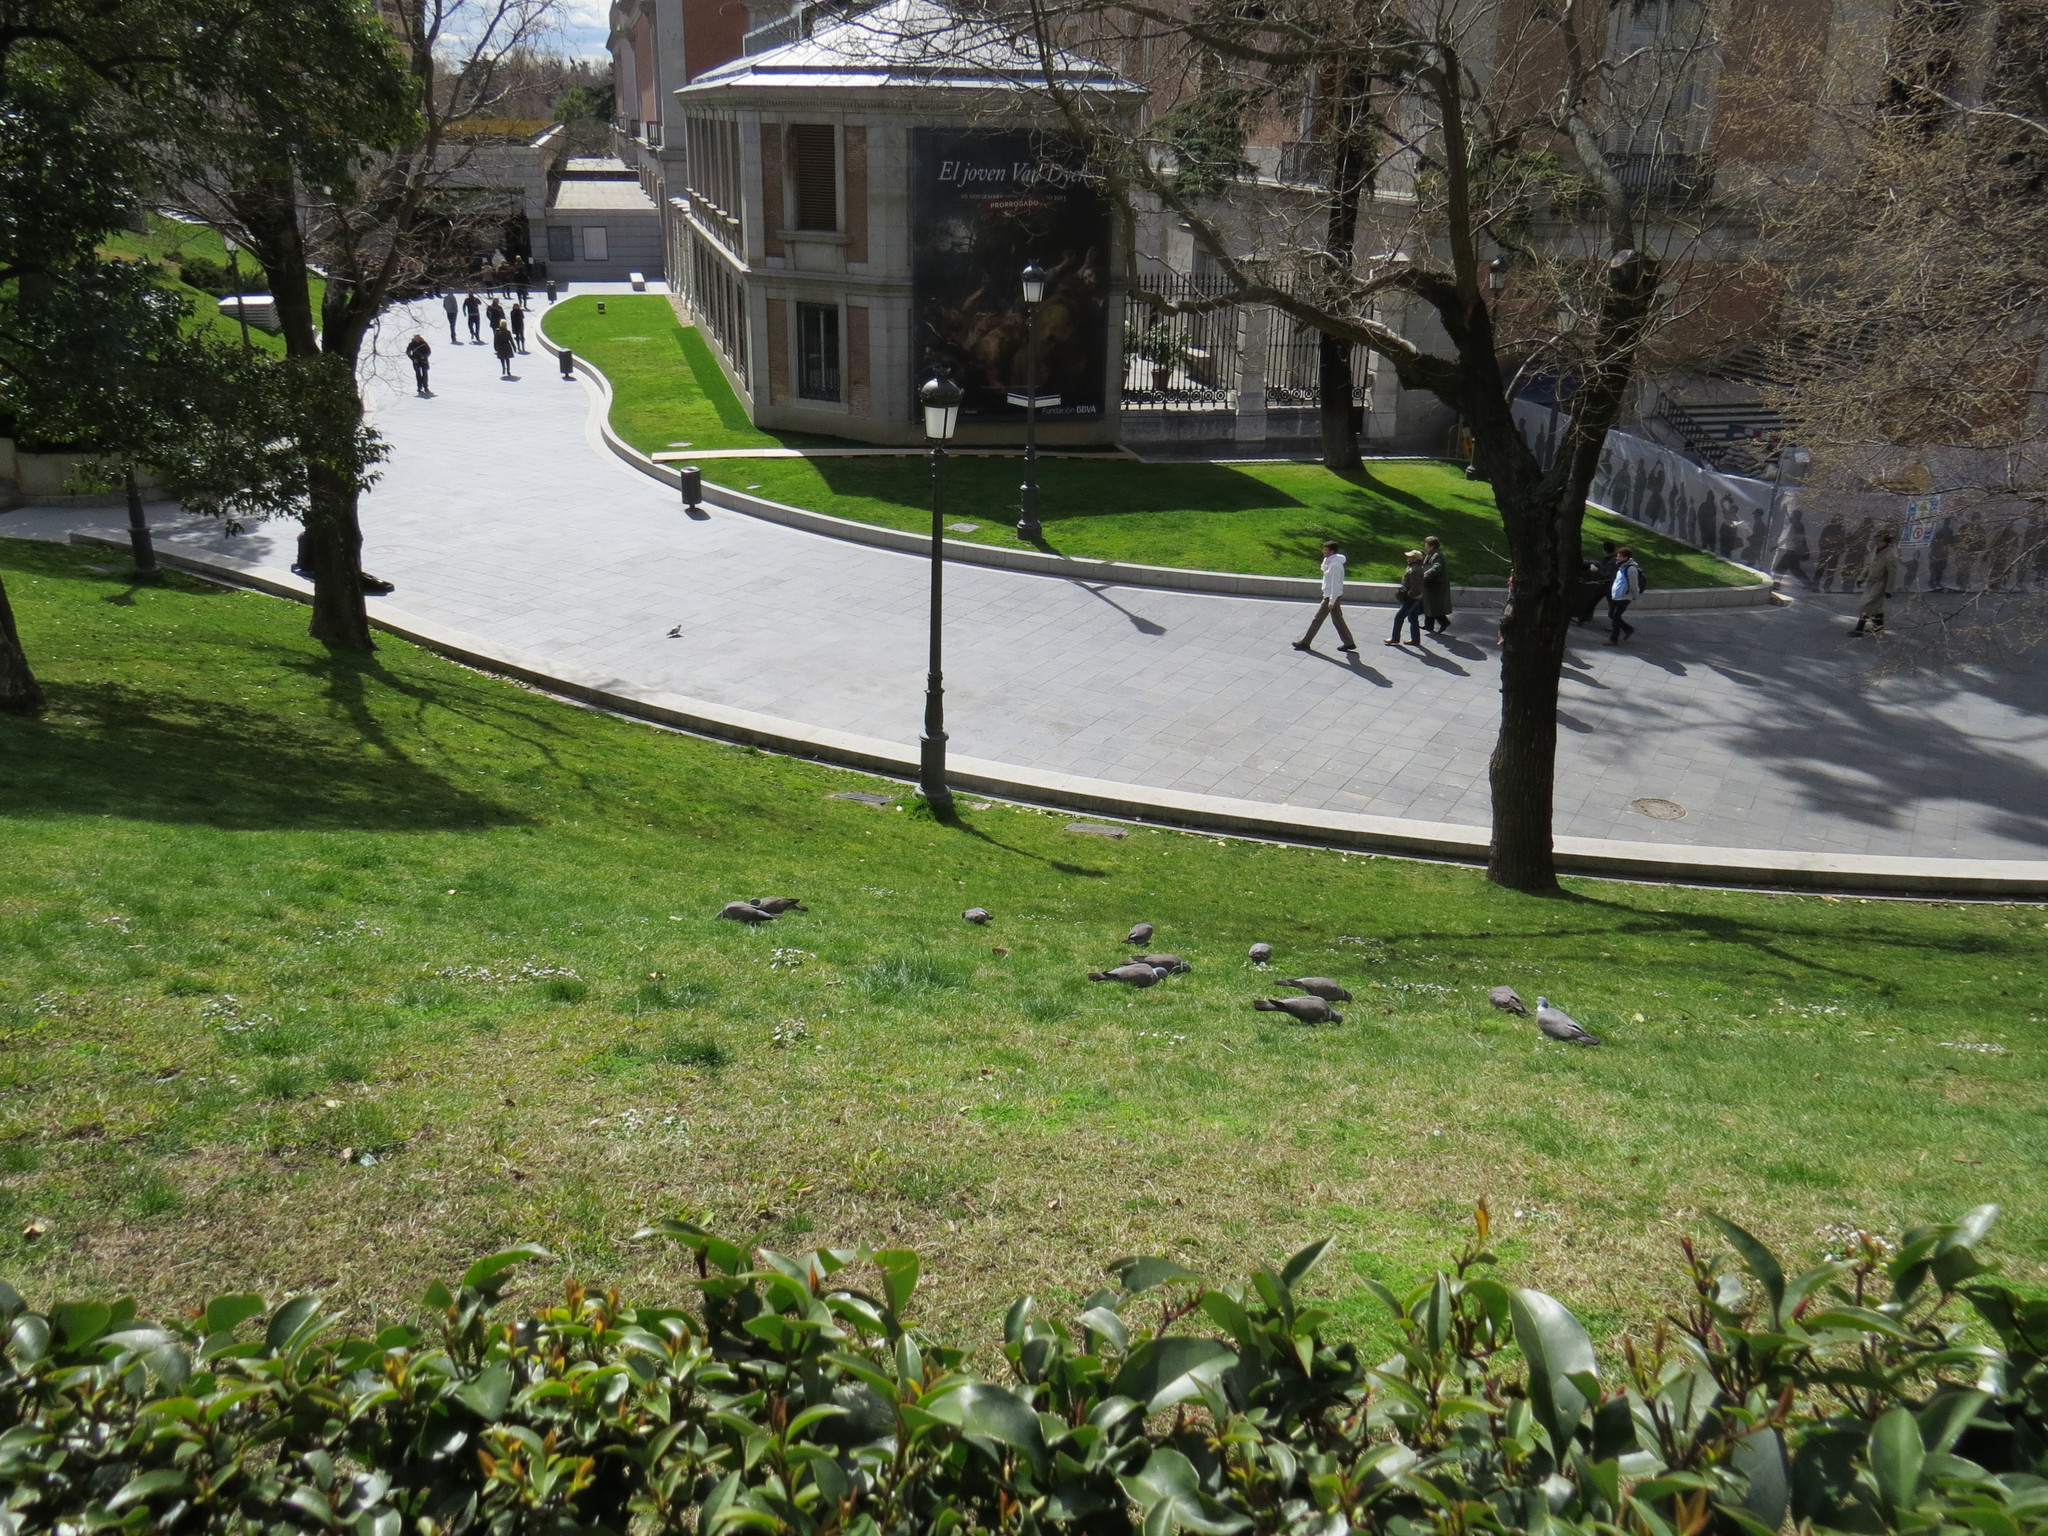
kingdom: Animalia
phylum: Chordata
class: Aves
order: Columbiformes
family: Columbidae
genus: Columba
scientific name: Columba palumbus
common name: Common wood pigeon
